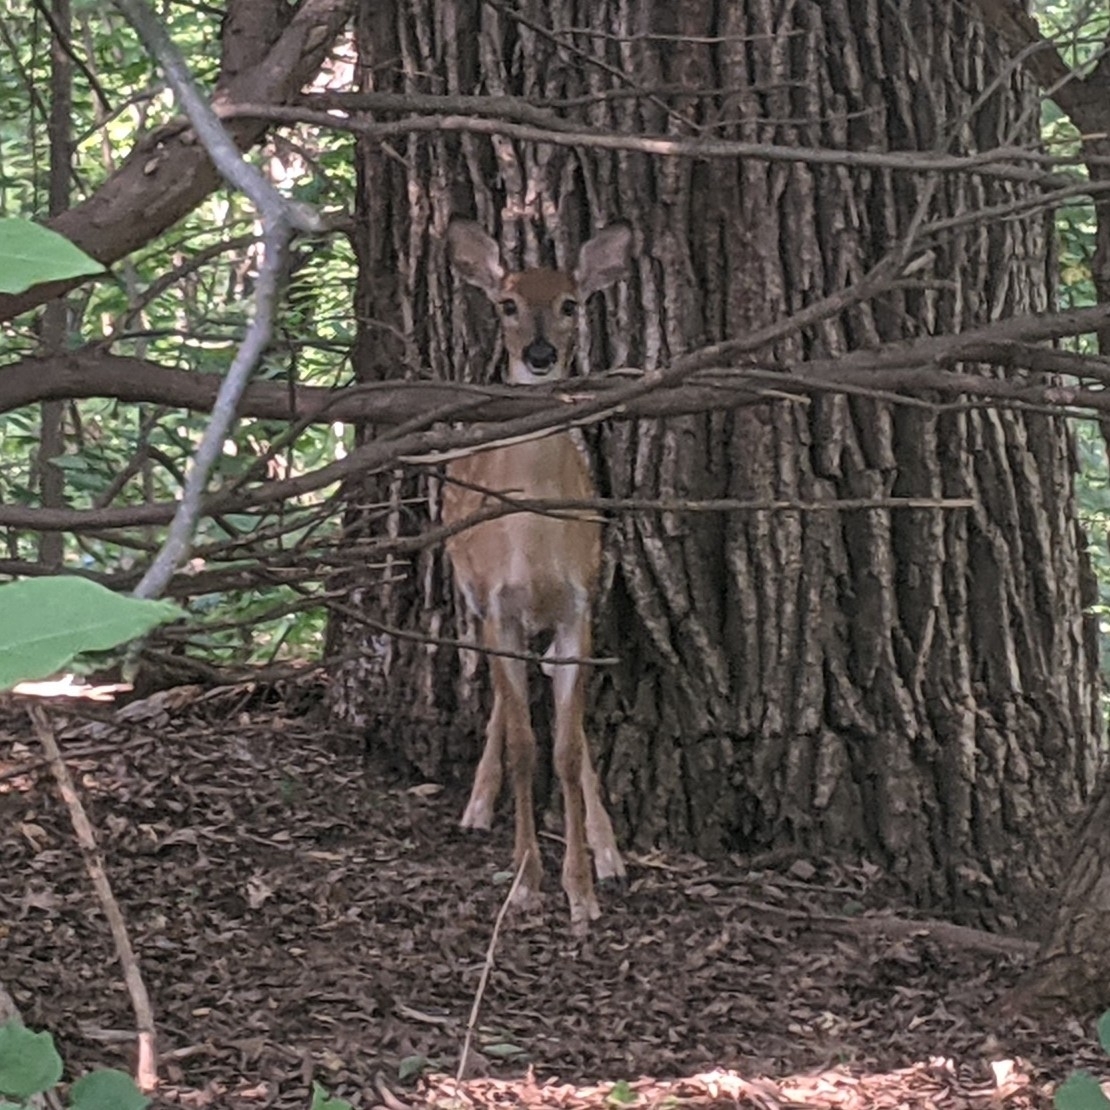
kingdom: Animalia
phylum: Chordata
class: Mammalia
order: Artiodactyla
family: Cervidae
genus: Odocoileus
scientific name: Odocoileus virginianus
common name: White-tailed deer
